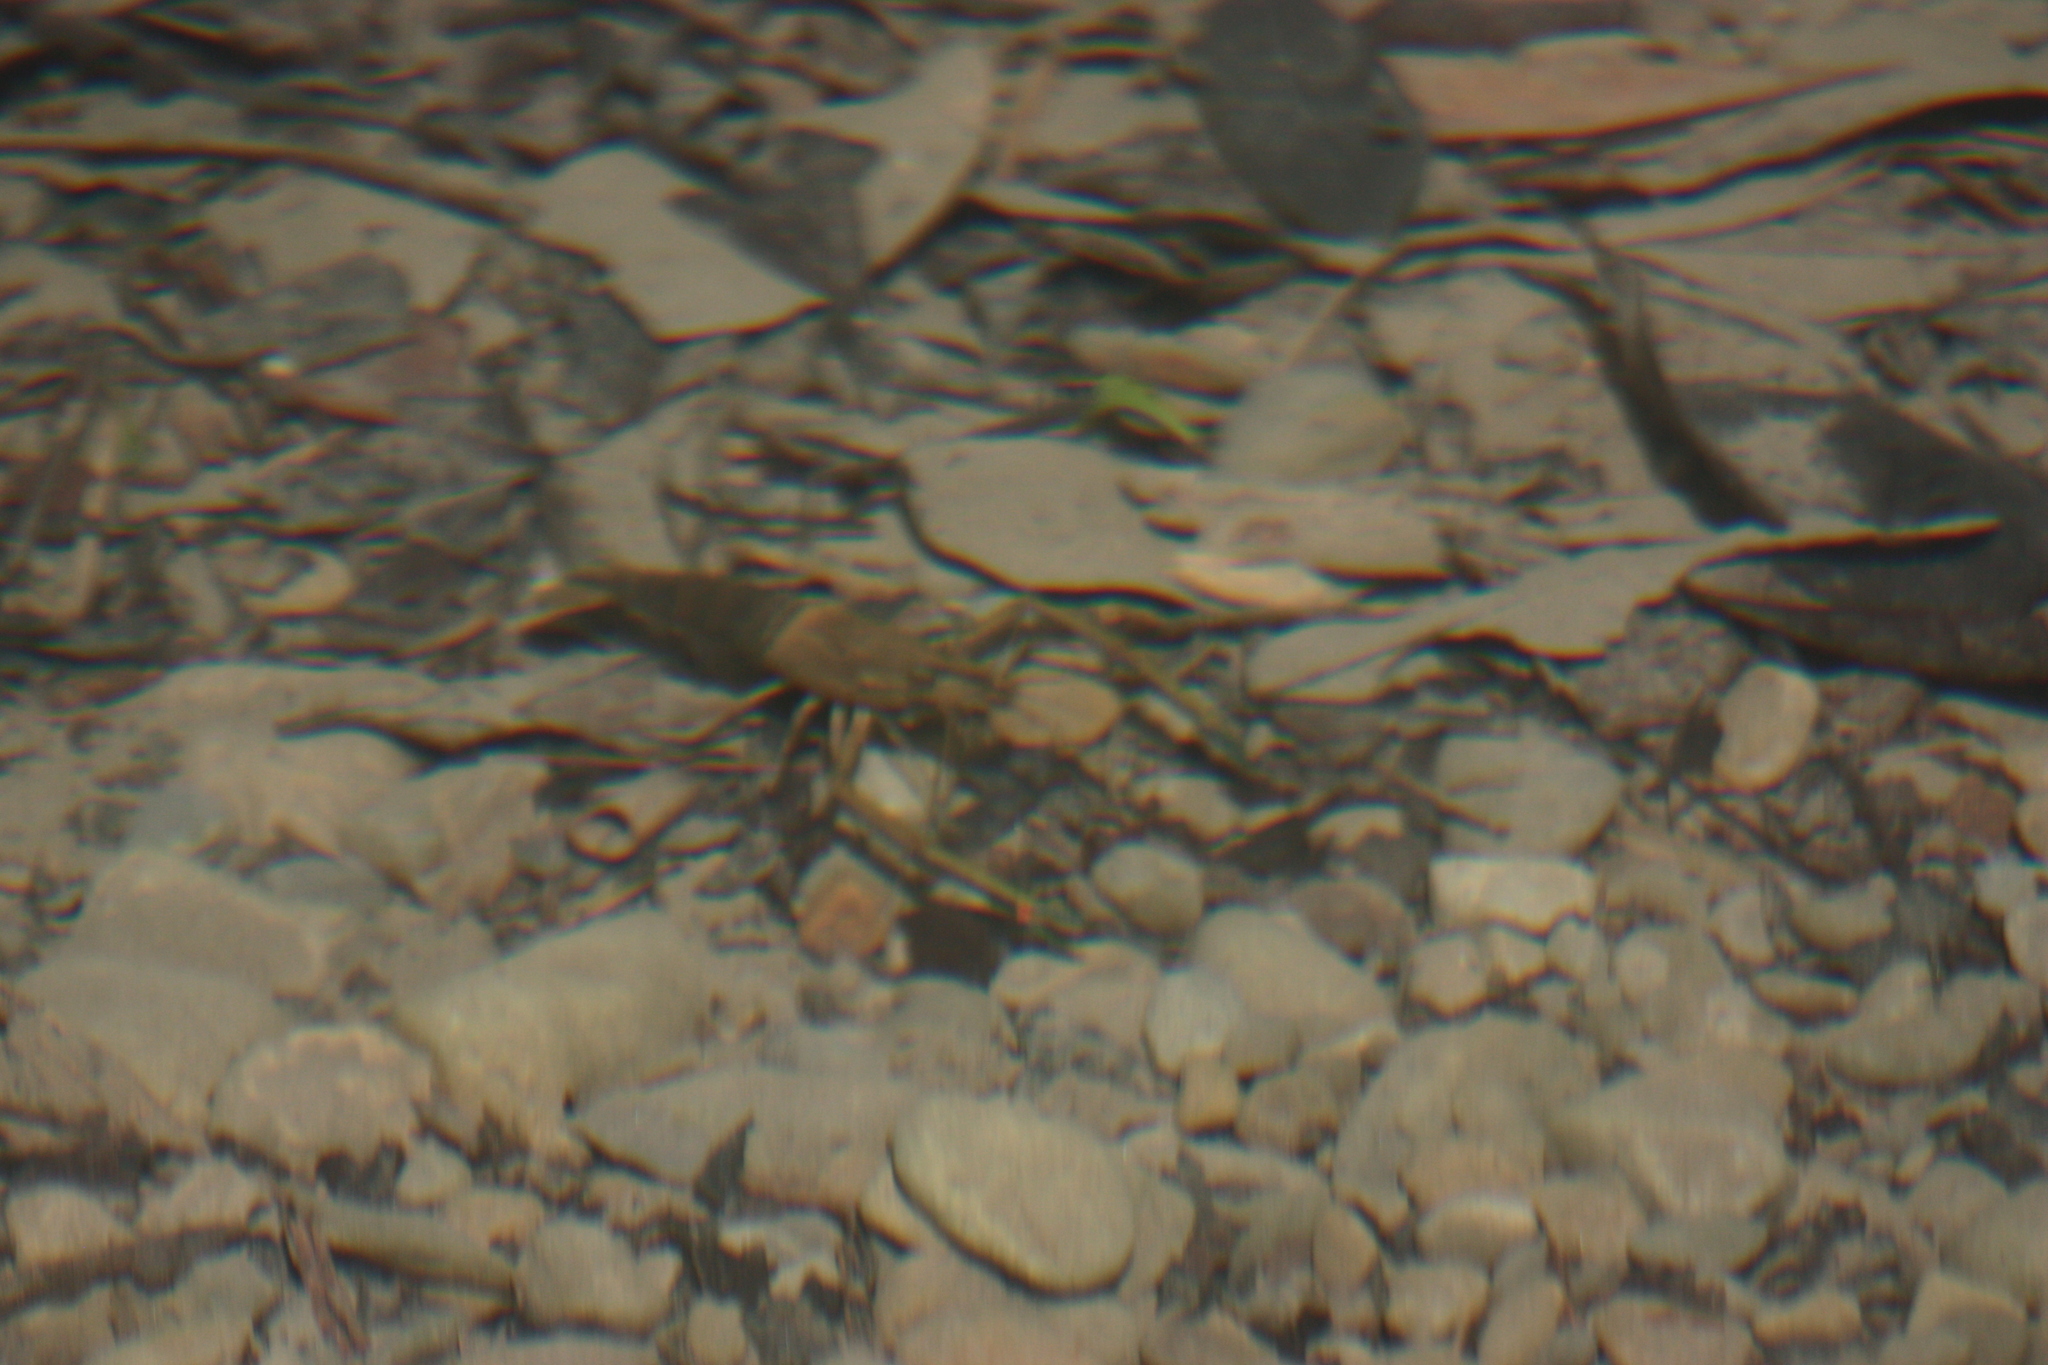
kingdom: Animalia
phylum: Arthropoda
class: Malacostraca
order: Decapoda
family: Palaemonidae
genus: Macrobrachium
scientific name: Macrobrachium asperulum
